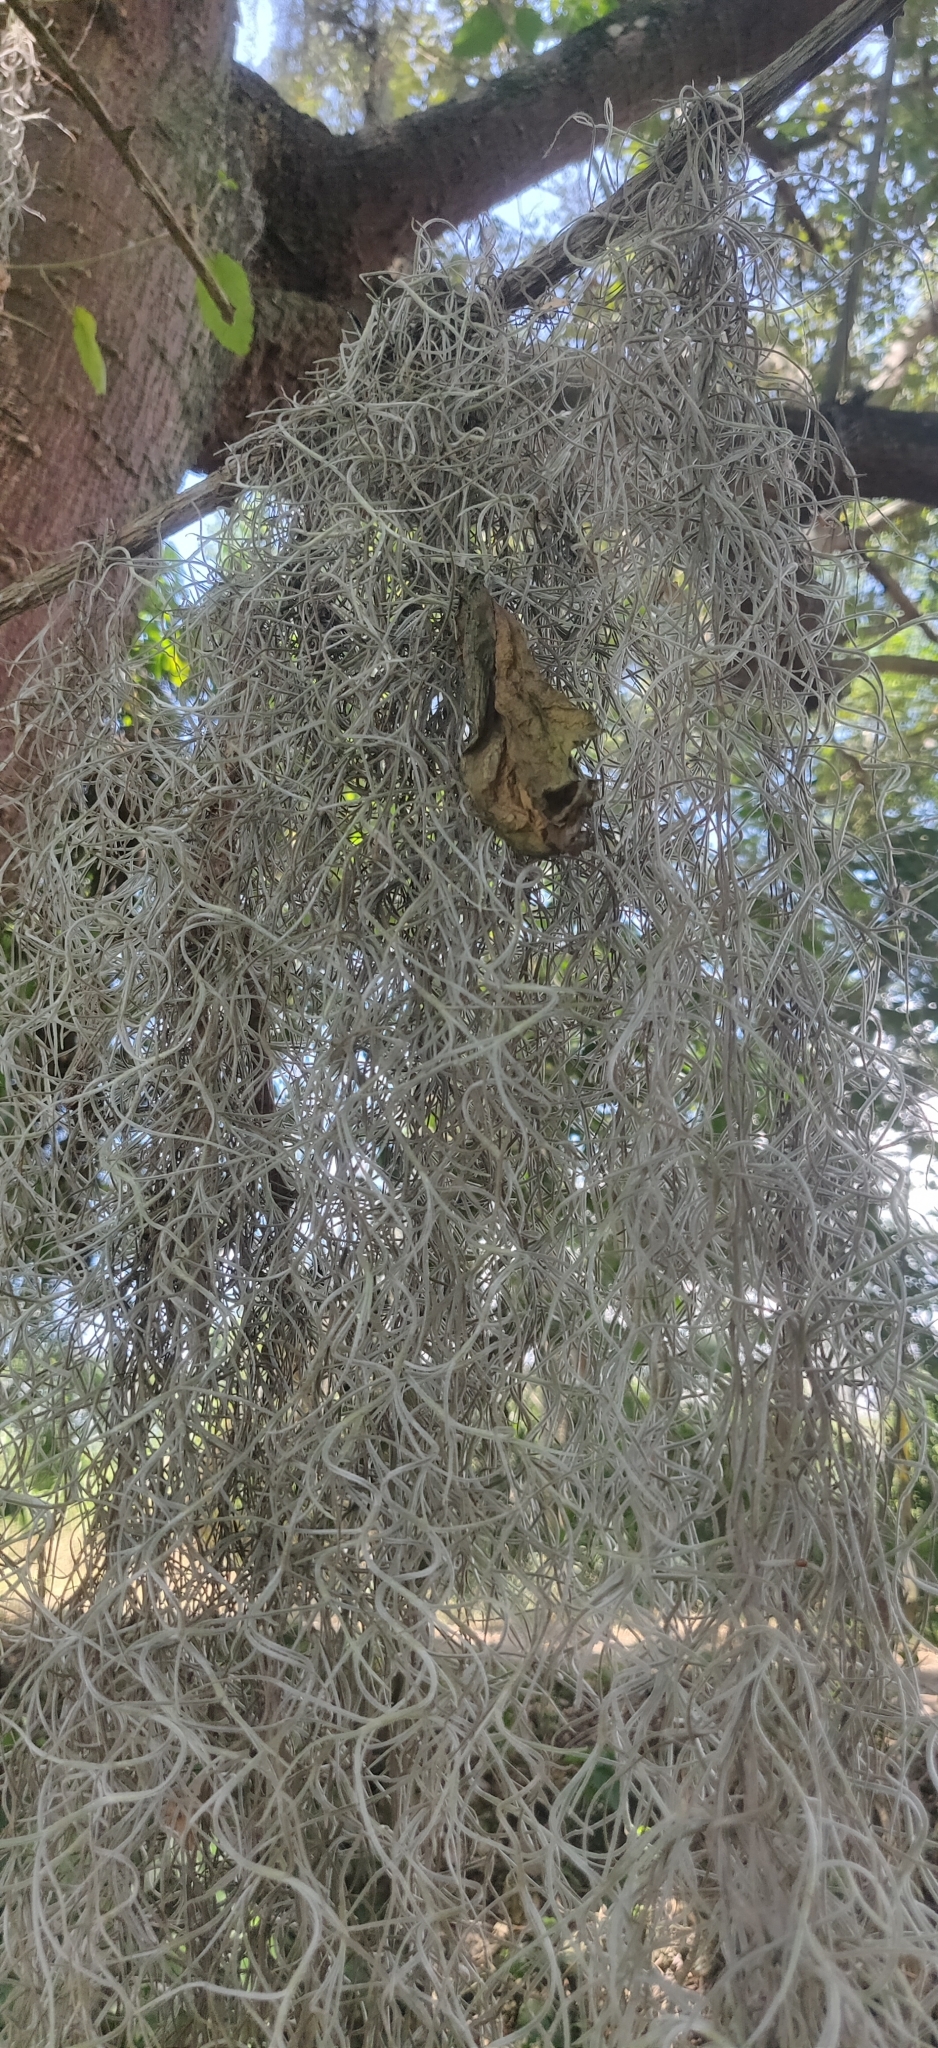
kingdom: Plantae
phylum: Tracheophyta
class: Liliopsida
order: Poales
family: Bromeliaceae
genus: Tillandsia
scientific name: Tillandsia usneoides
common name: Spanish moss
